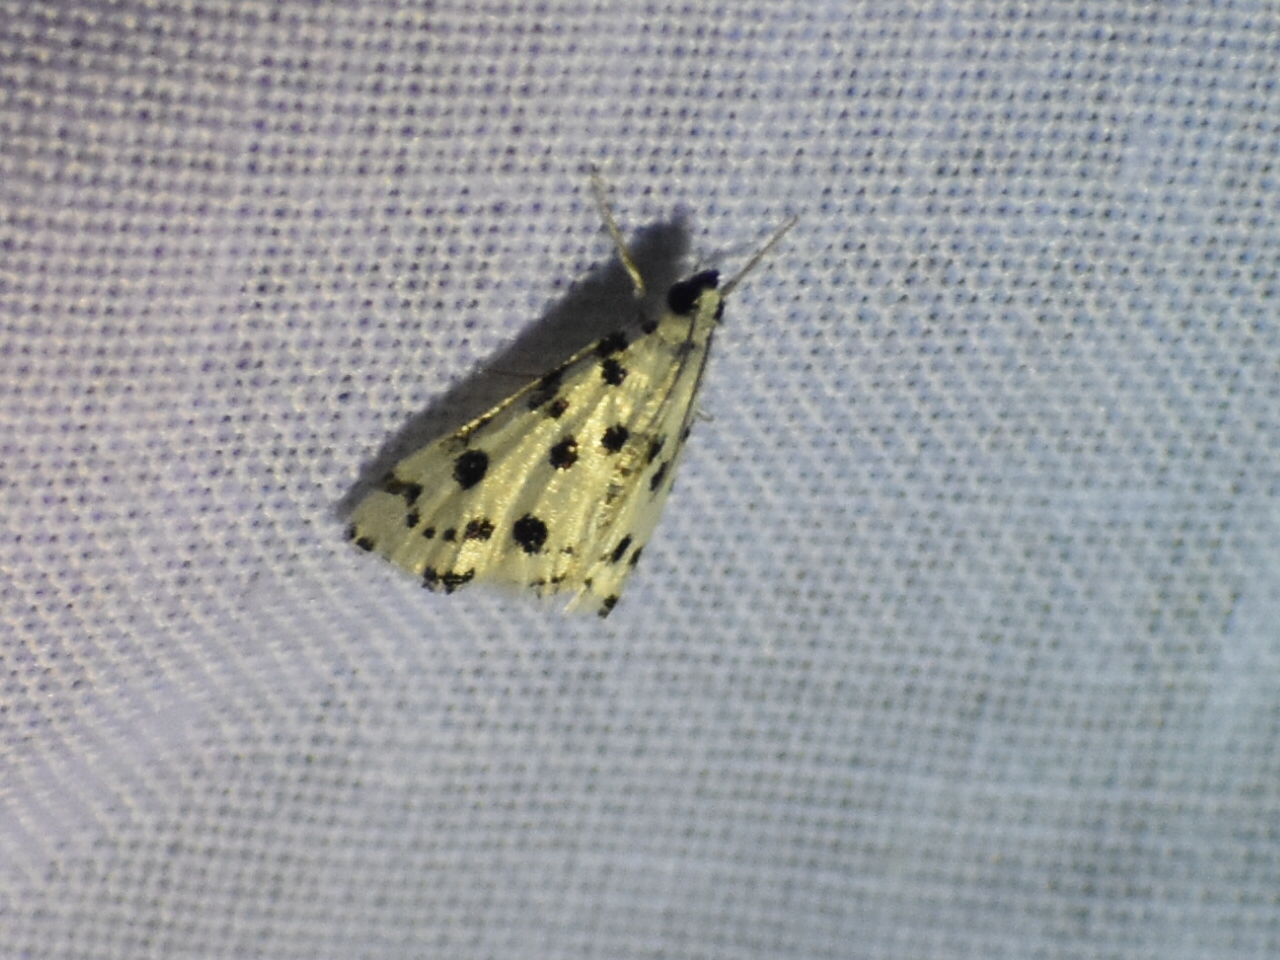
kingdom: Animalia
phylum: Arthropoda
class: Insecta
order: Lepidoptera
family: Crambidae
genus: Eustixia
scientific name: Eustixia pupula
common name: American cabbage pearl
